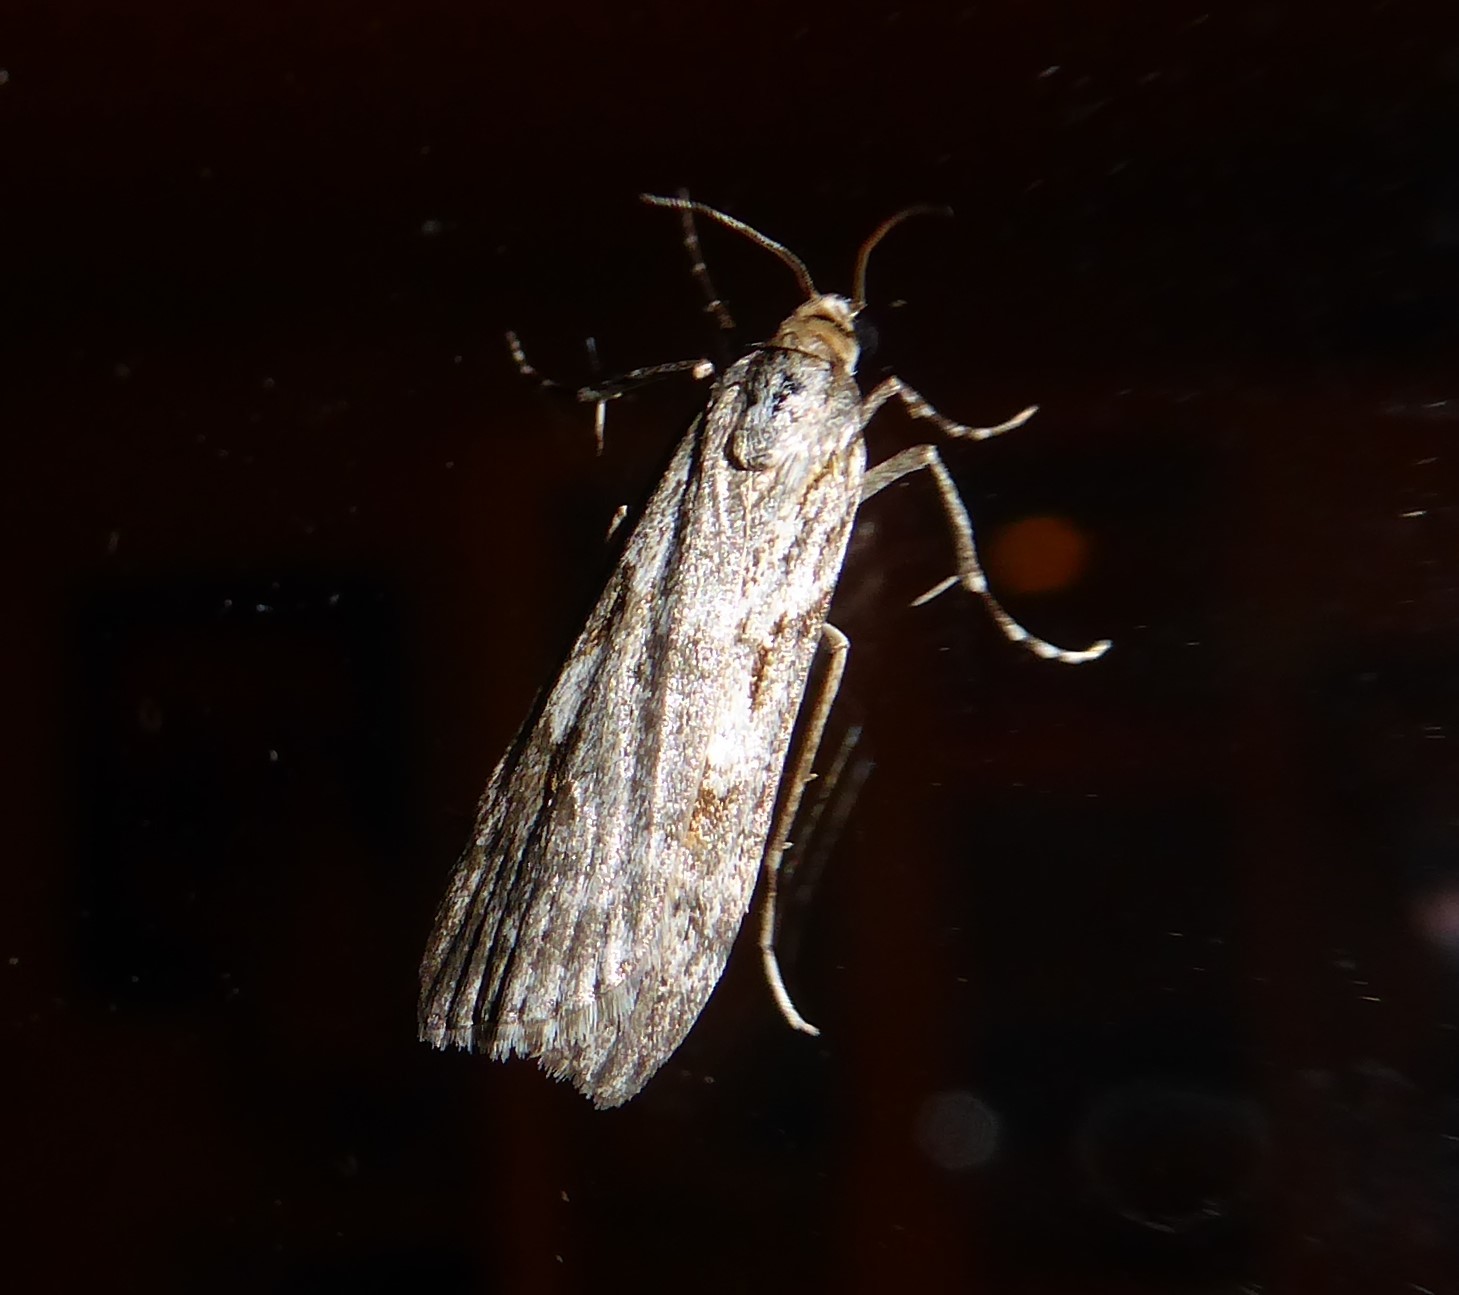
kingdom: Animalia
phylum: Arthropoda
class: Insecta
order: Lepidoptera
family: Crambidae
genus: Scoparia
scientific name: Scoparia halopis
